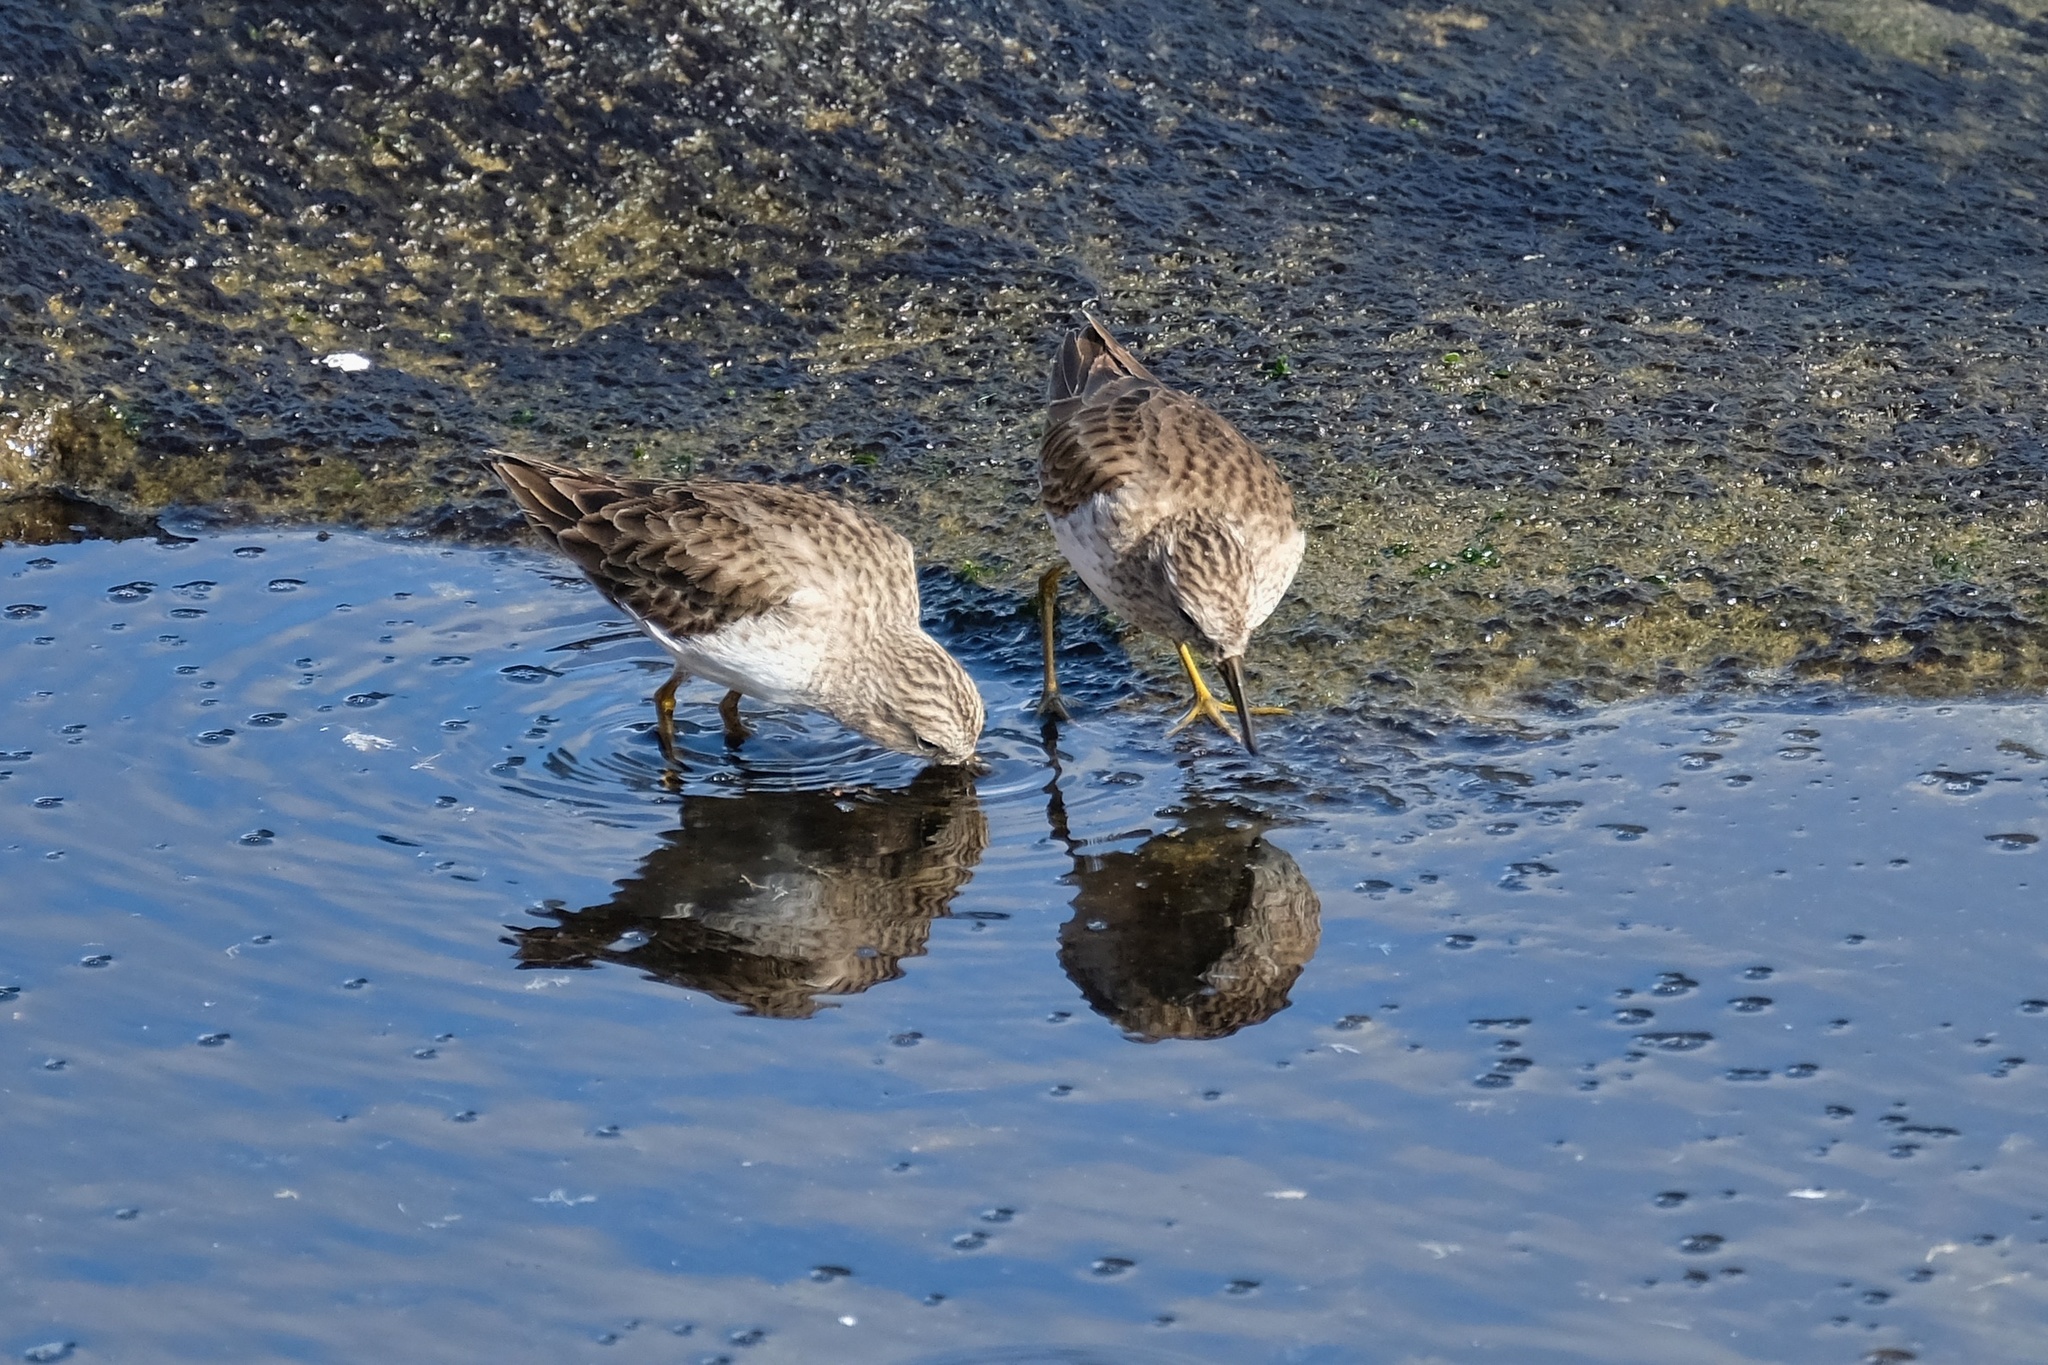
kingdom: Animalia
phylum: Chordata
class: Aves
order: Charadriiformes
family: Scolopacidae
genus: Calidris
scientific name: Calidris minutilla
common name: Least sandpiper
